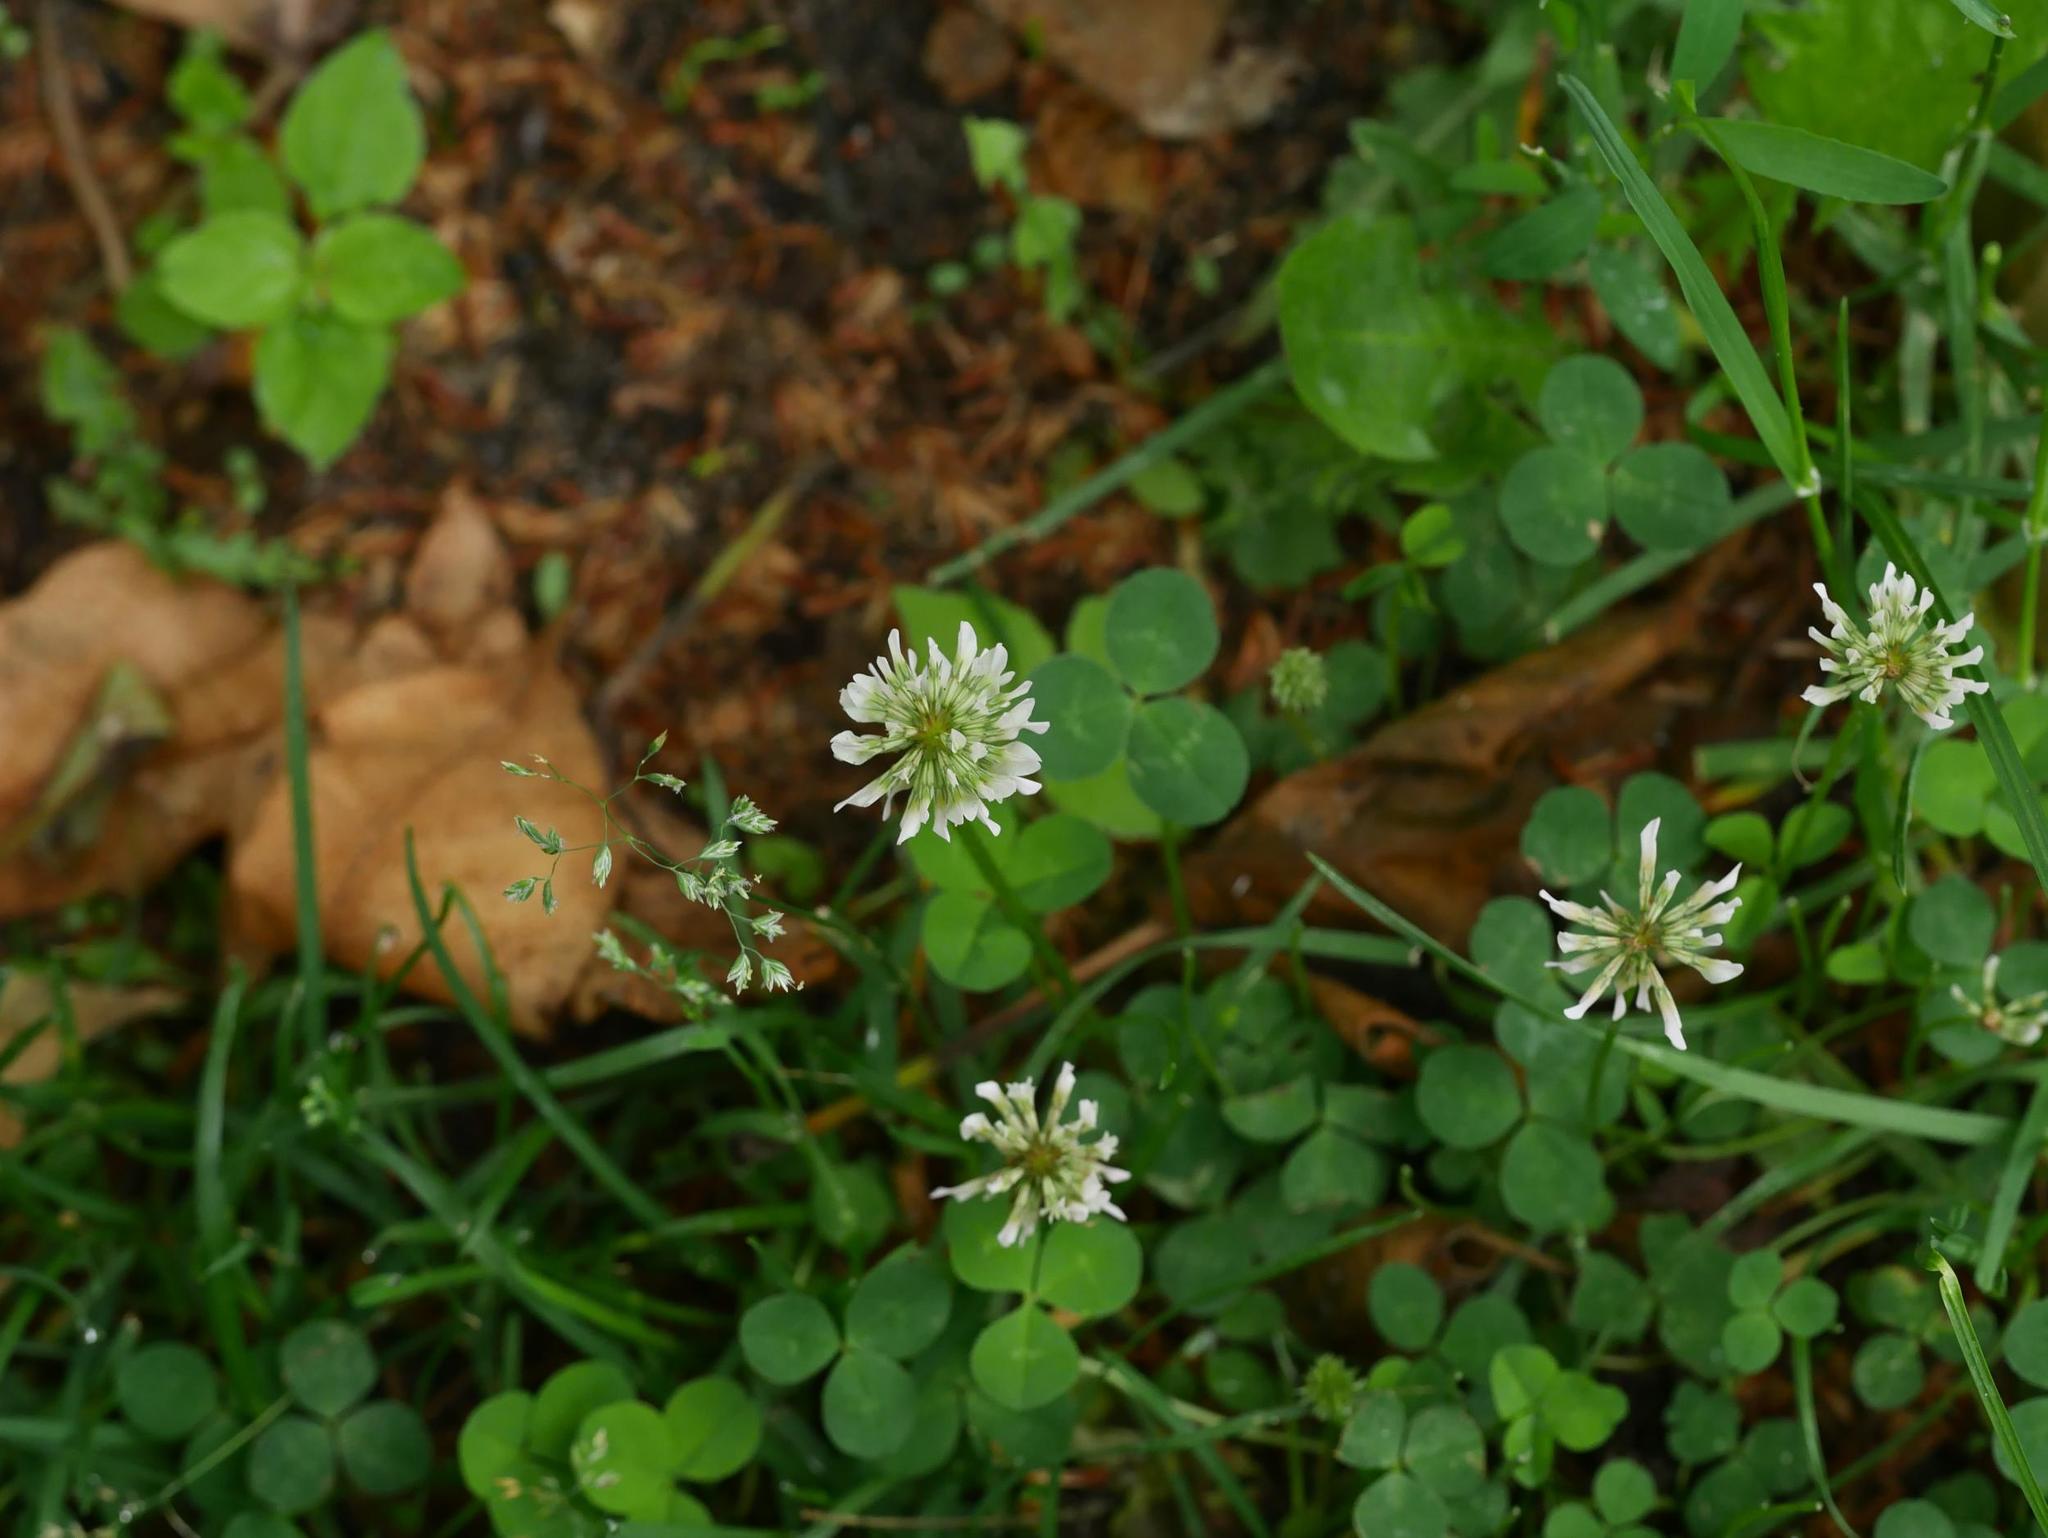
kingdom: Plantae
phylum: Tracheophyta
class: Magnoliopsida
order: Fabales
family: Fabaceae
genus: Trifolium
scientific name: Trifolium repens
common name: White clover
